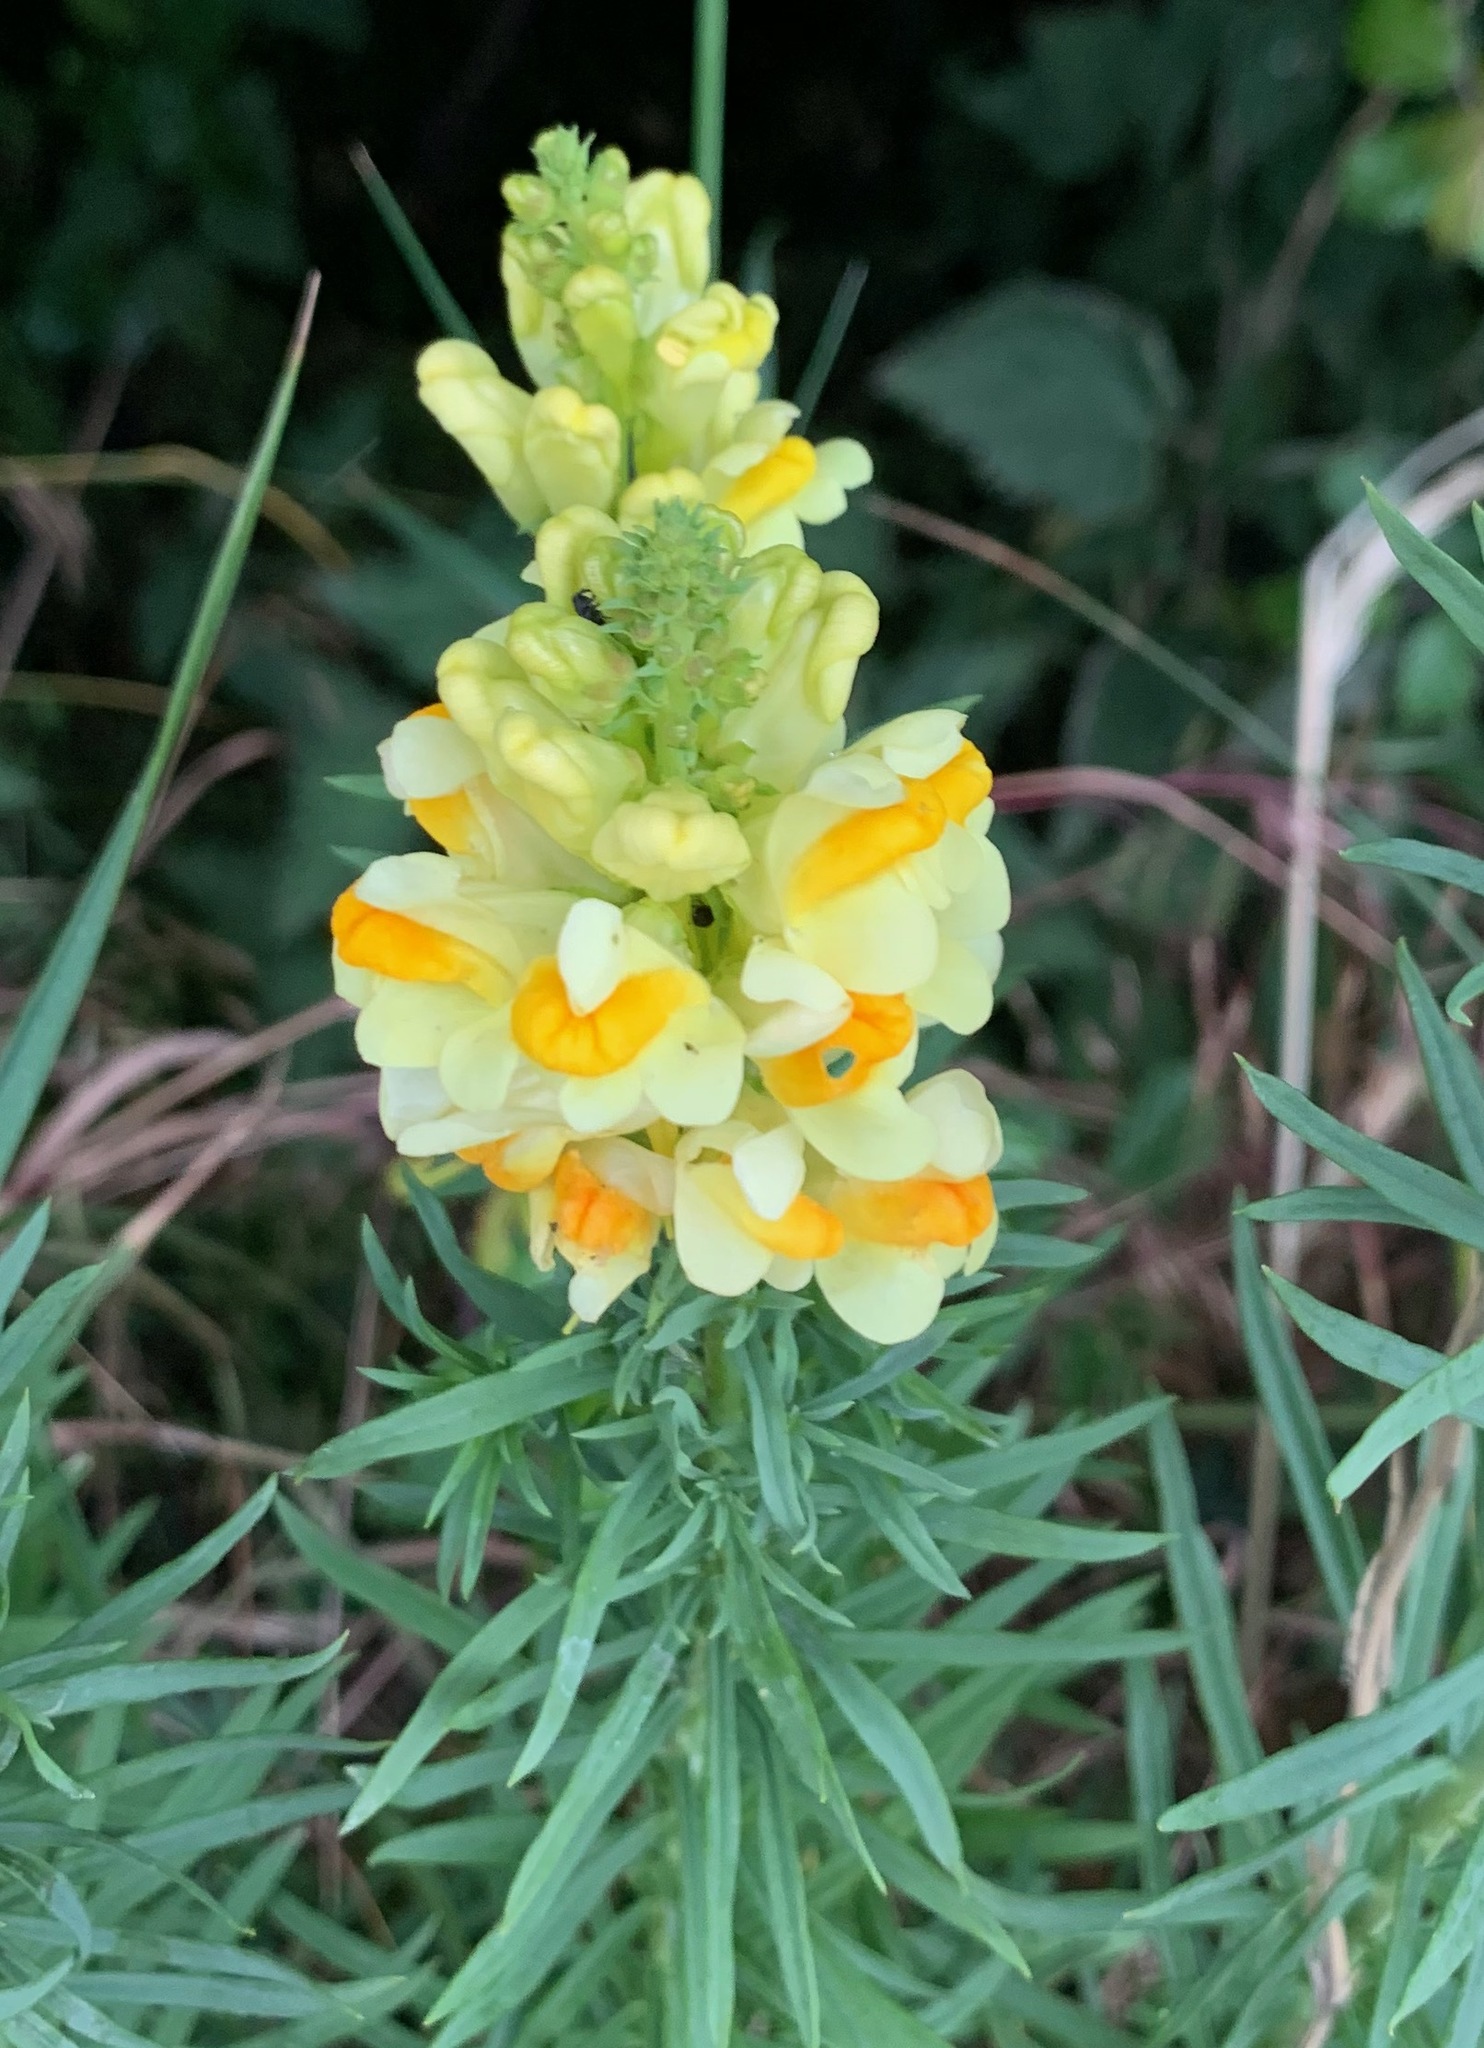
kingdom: Plantae
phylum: Tracheophyta
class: Magnoliopsida
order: Lamiales
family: Plantaginaceae
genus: Linaria
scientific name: Linaria vulgaris
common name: Butter and eggs
